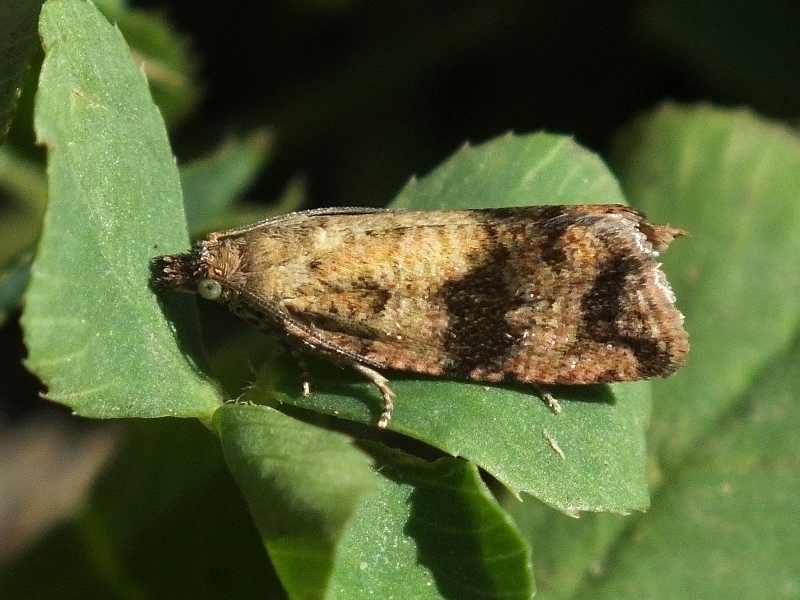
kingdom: Animalia
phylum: Arthropoda
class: Insecta
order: Lepidoptera
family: Tortricidae
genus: Celypha
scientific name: Celypha striana
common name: Barred marble
